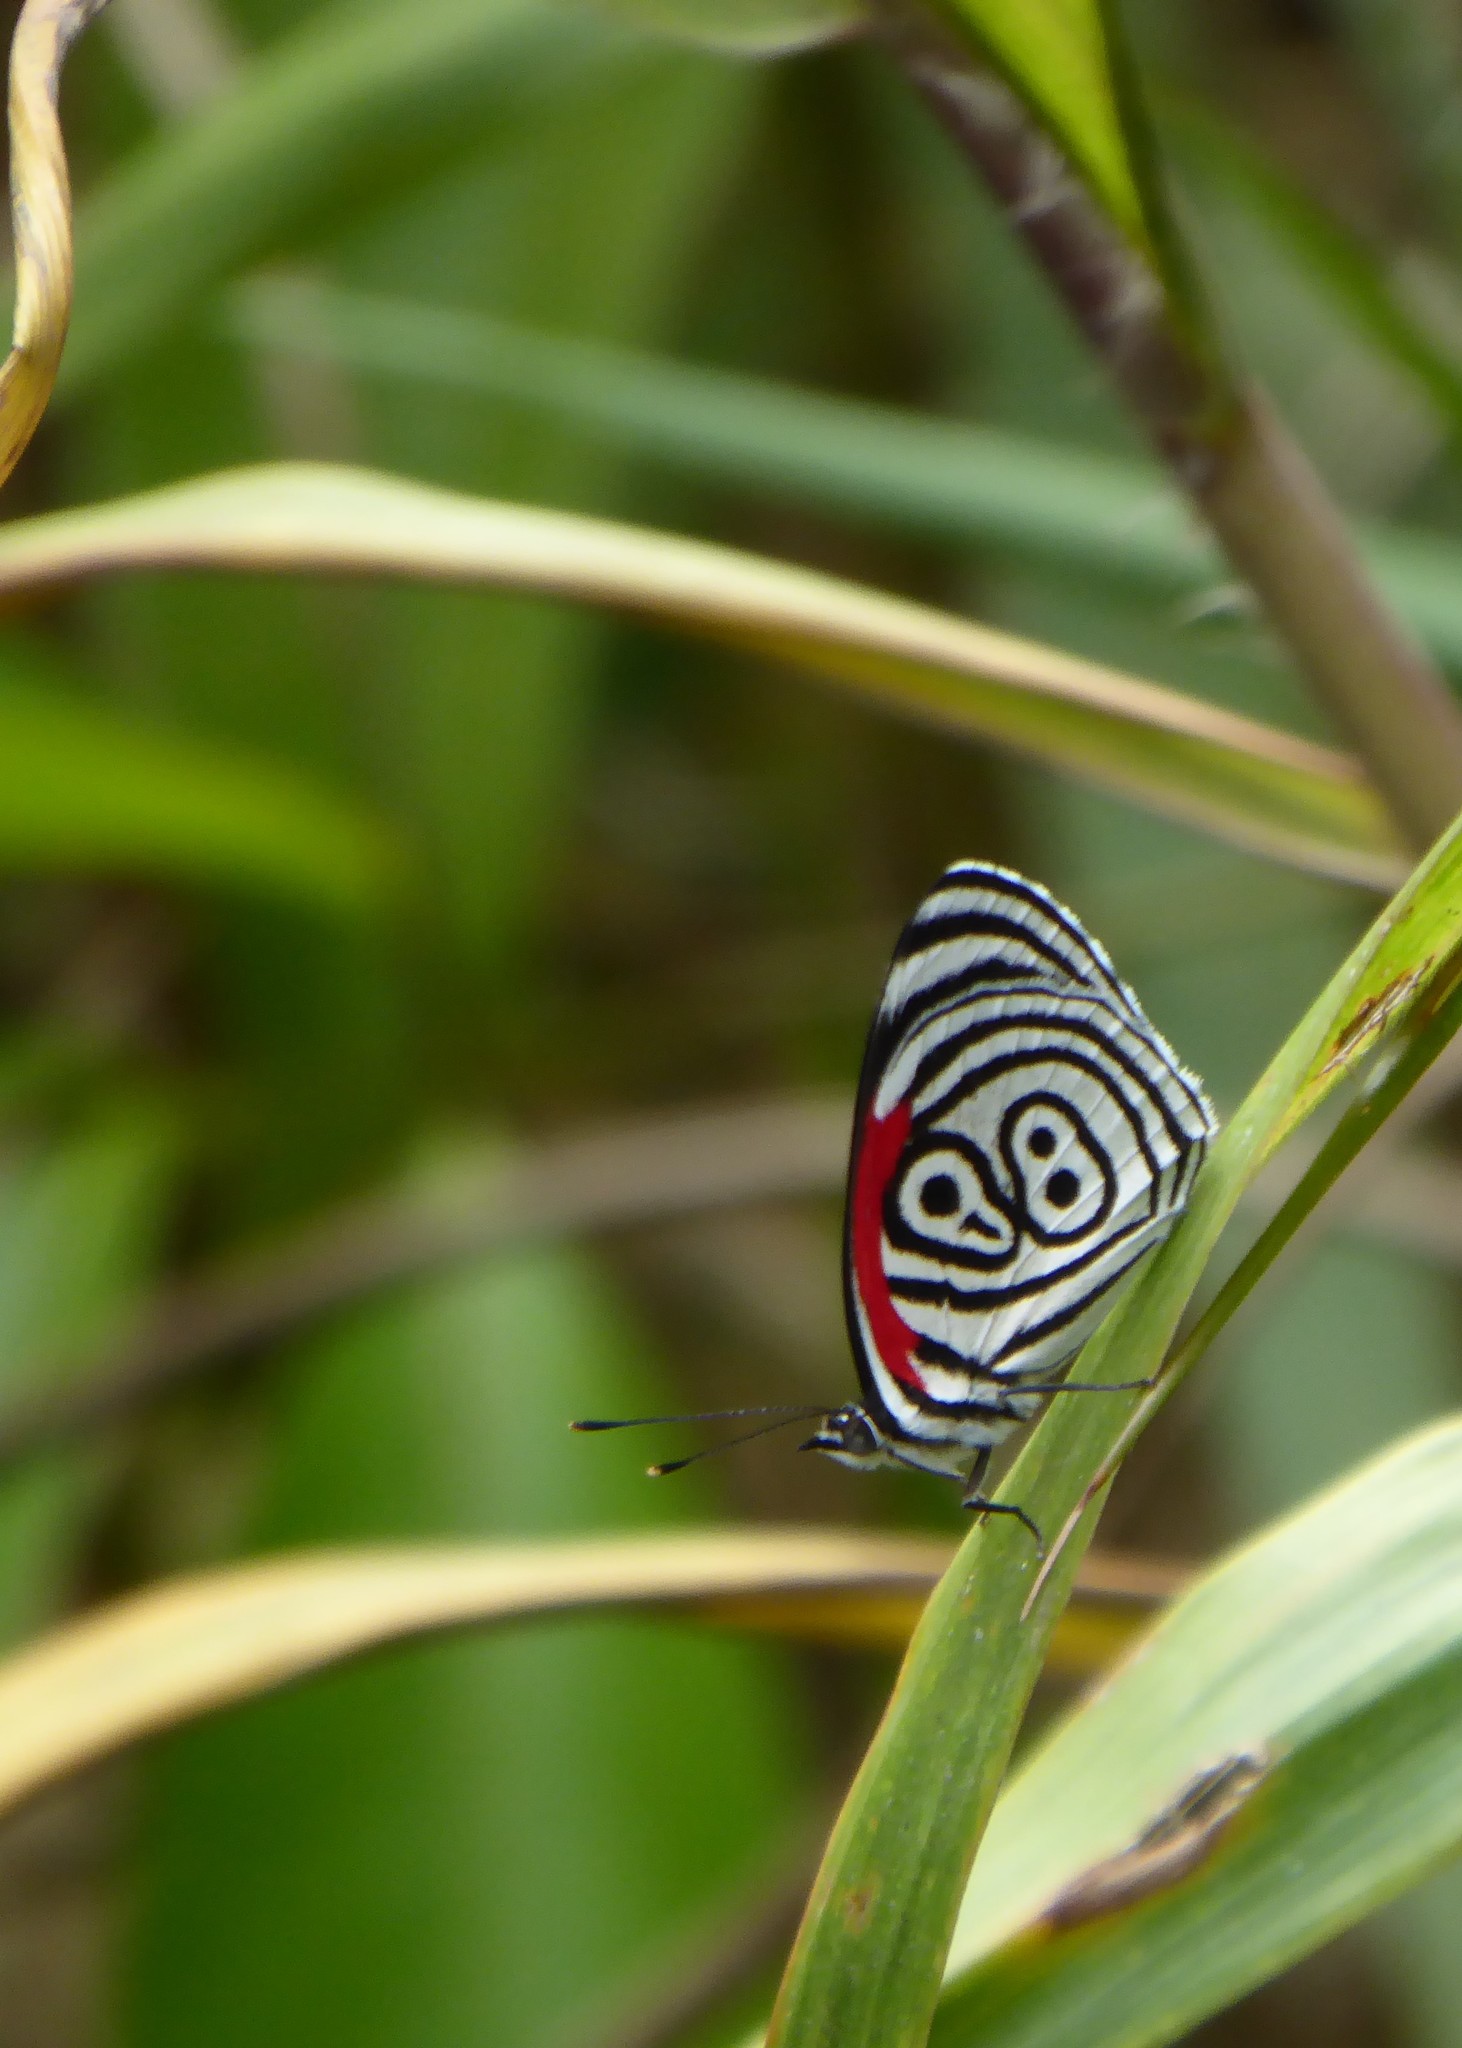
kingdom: Animalia
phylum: Arthropoda
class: Insecta
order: Lepidoptera
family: Nymphalidae
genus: Diaethria
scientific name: Diaethria clymena
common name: Widespread eighty-eight
